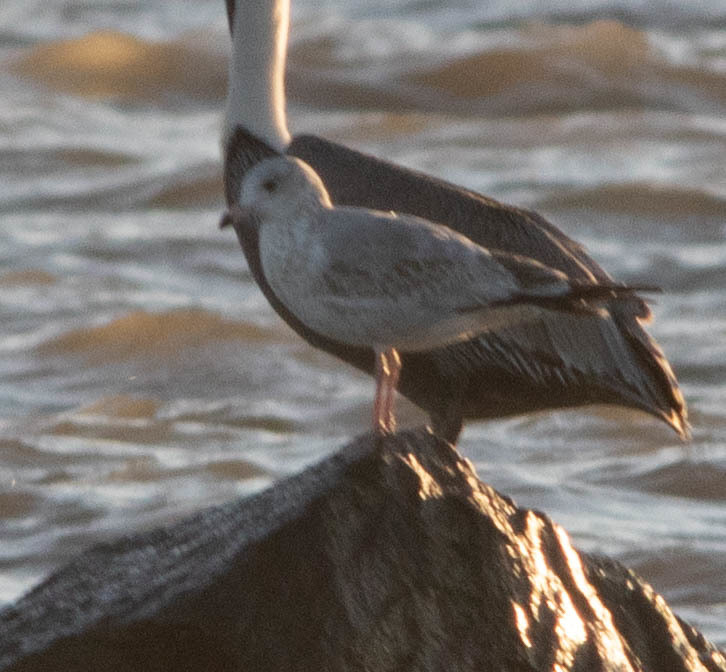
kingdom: Animalia
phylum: Chordata
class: Aves
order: Charadriiformes
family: Laridae
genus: Larus
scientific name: Larus delawarensis
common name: Ring-billed gull
